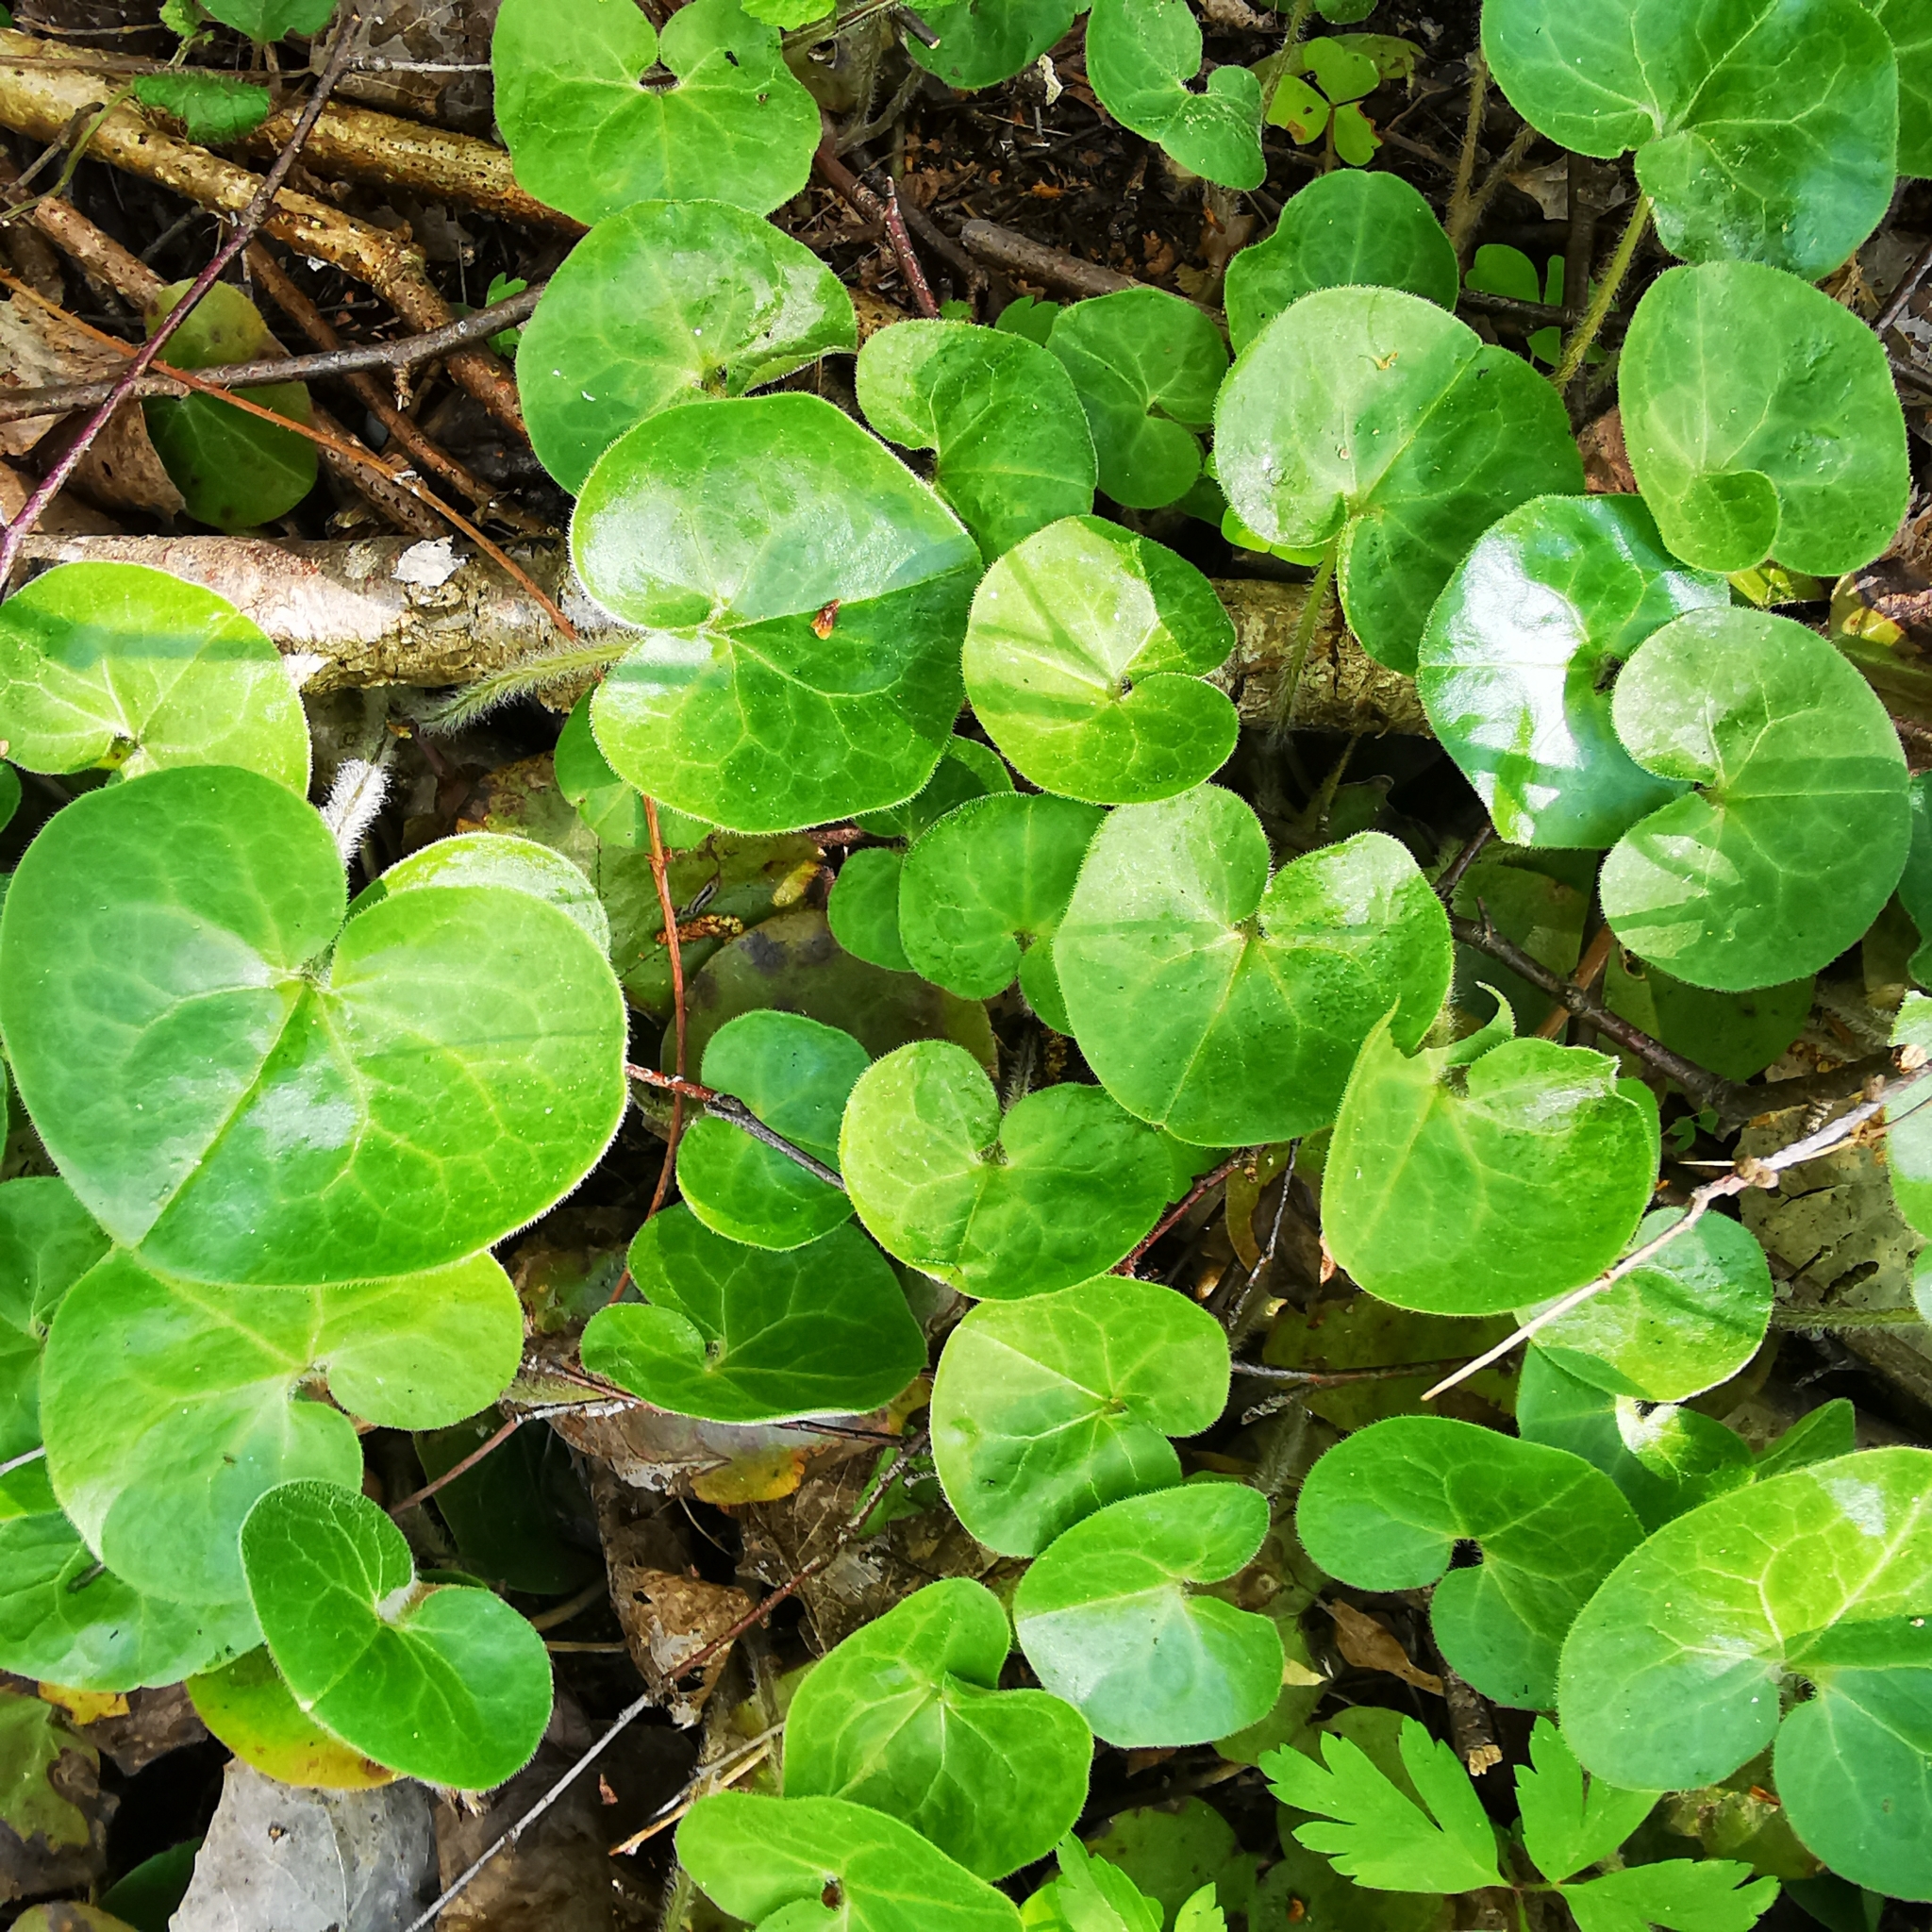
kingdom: Plantae
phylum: Tracheophyta
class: Magnoliopsida
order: Piperales
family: Aristolochiaceae
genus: Asarum
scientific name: Asarum europaeum
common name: Asarabacca
